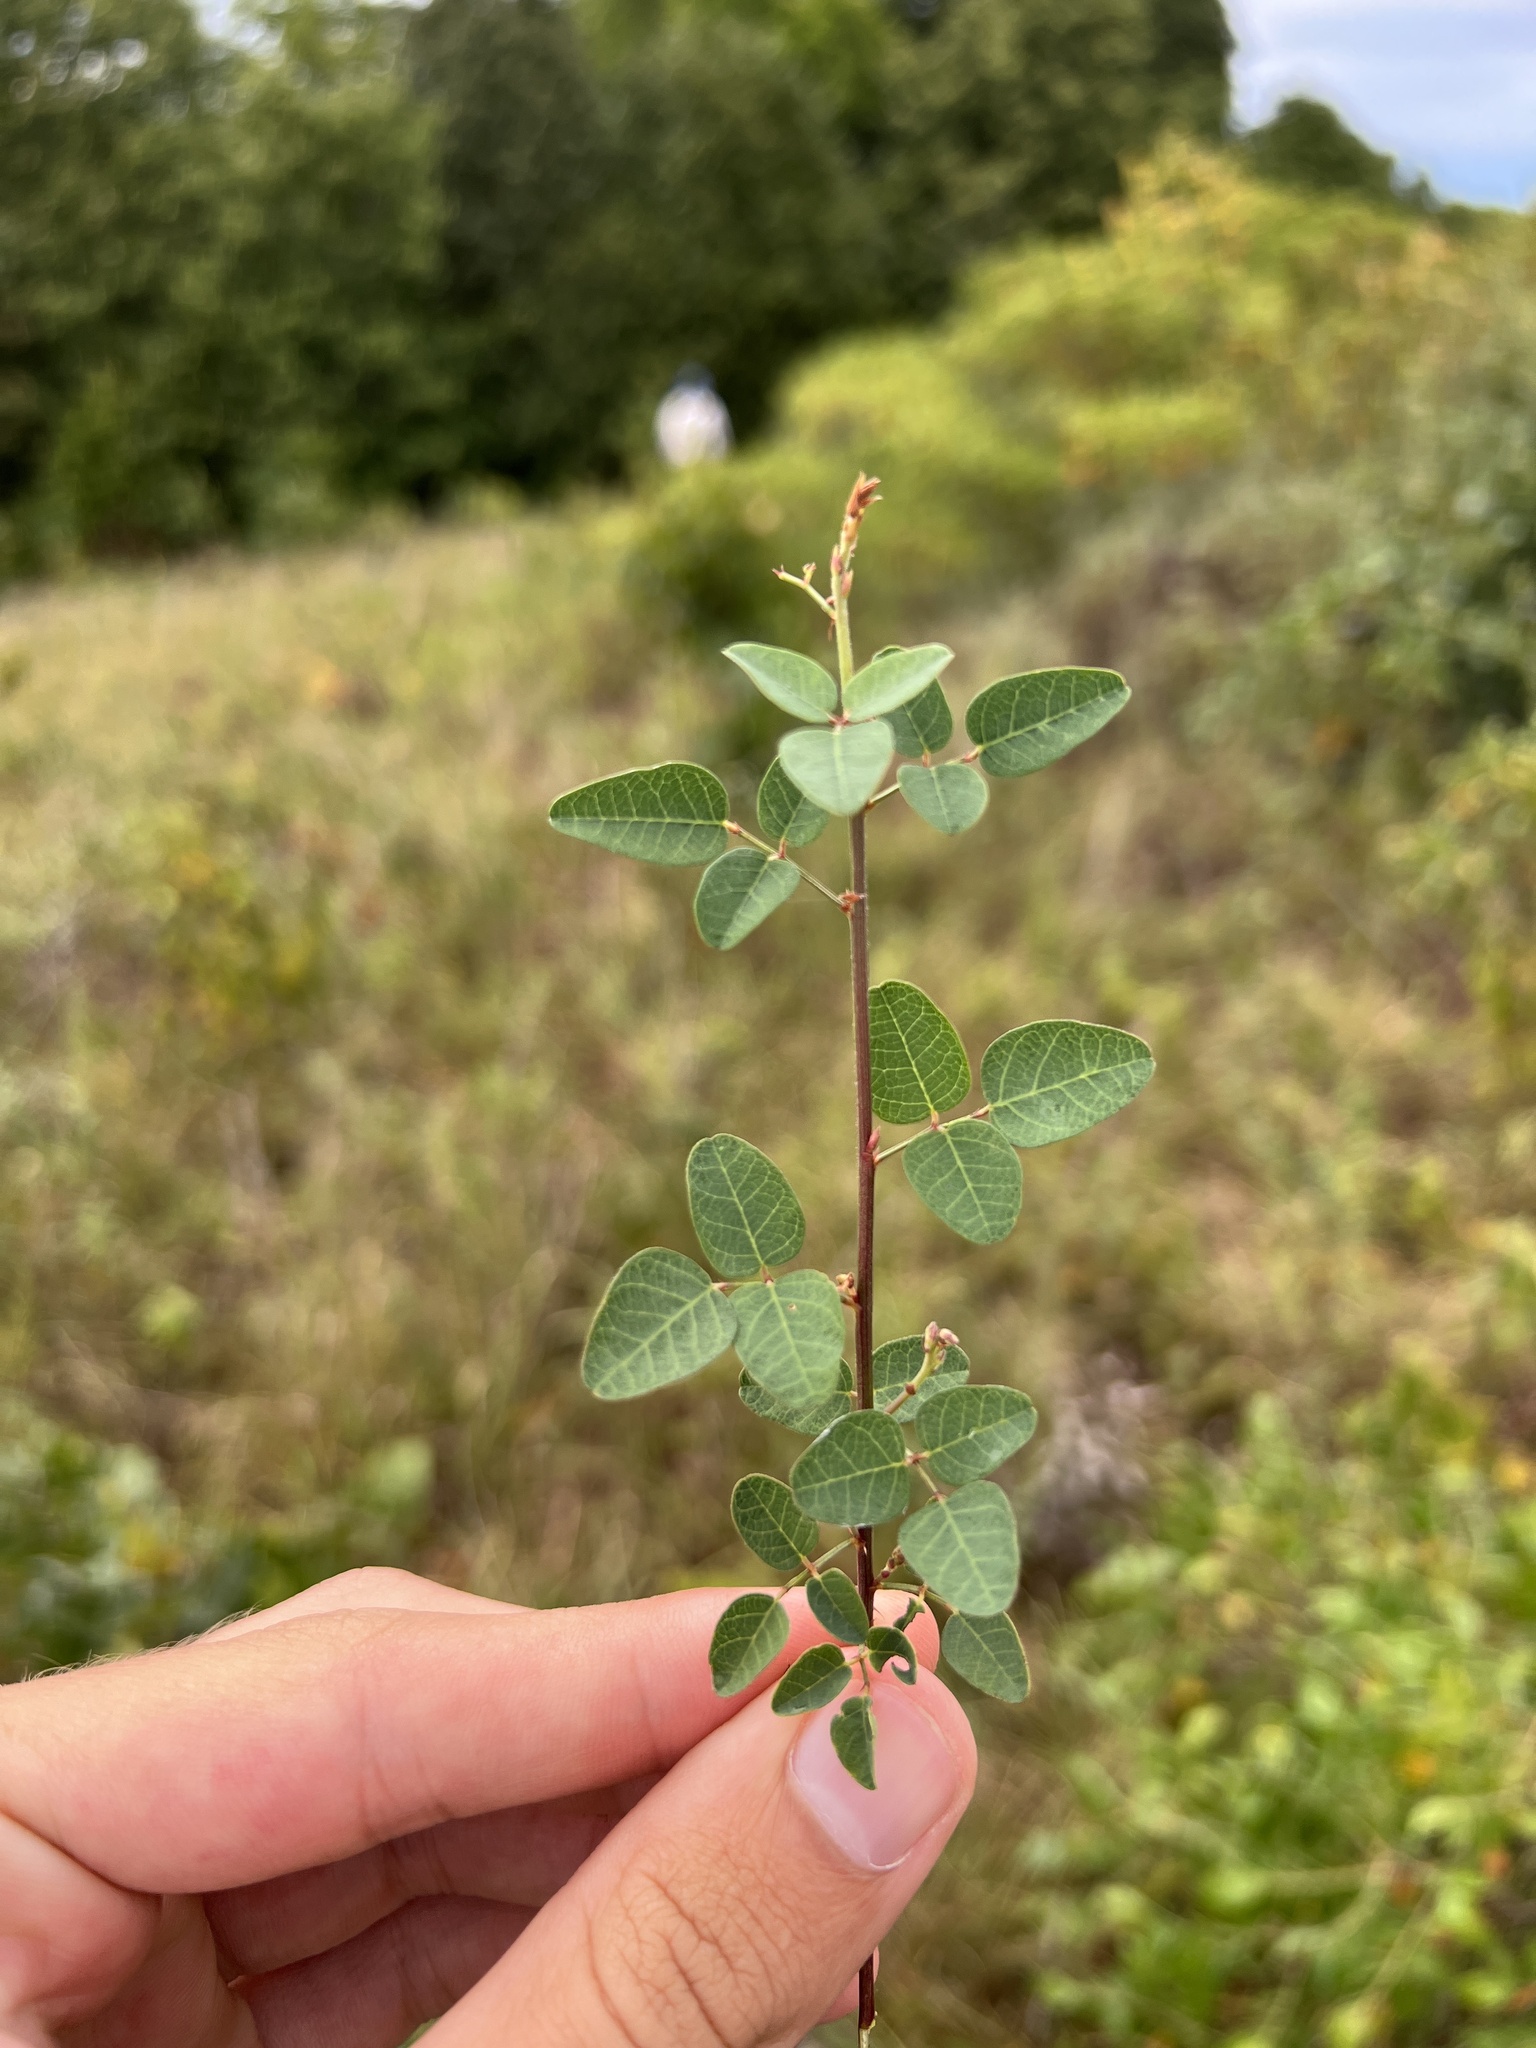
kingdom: Plantae
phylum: Tracheophyta
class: Magnoliopsida
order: Fabales
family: Fabaceae
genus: Desmodium
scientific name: Desmodium marilandicum
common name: Maryland tick-trefoil
